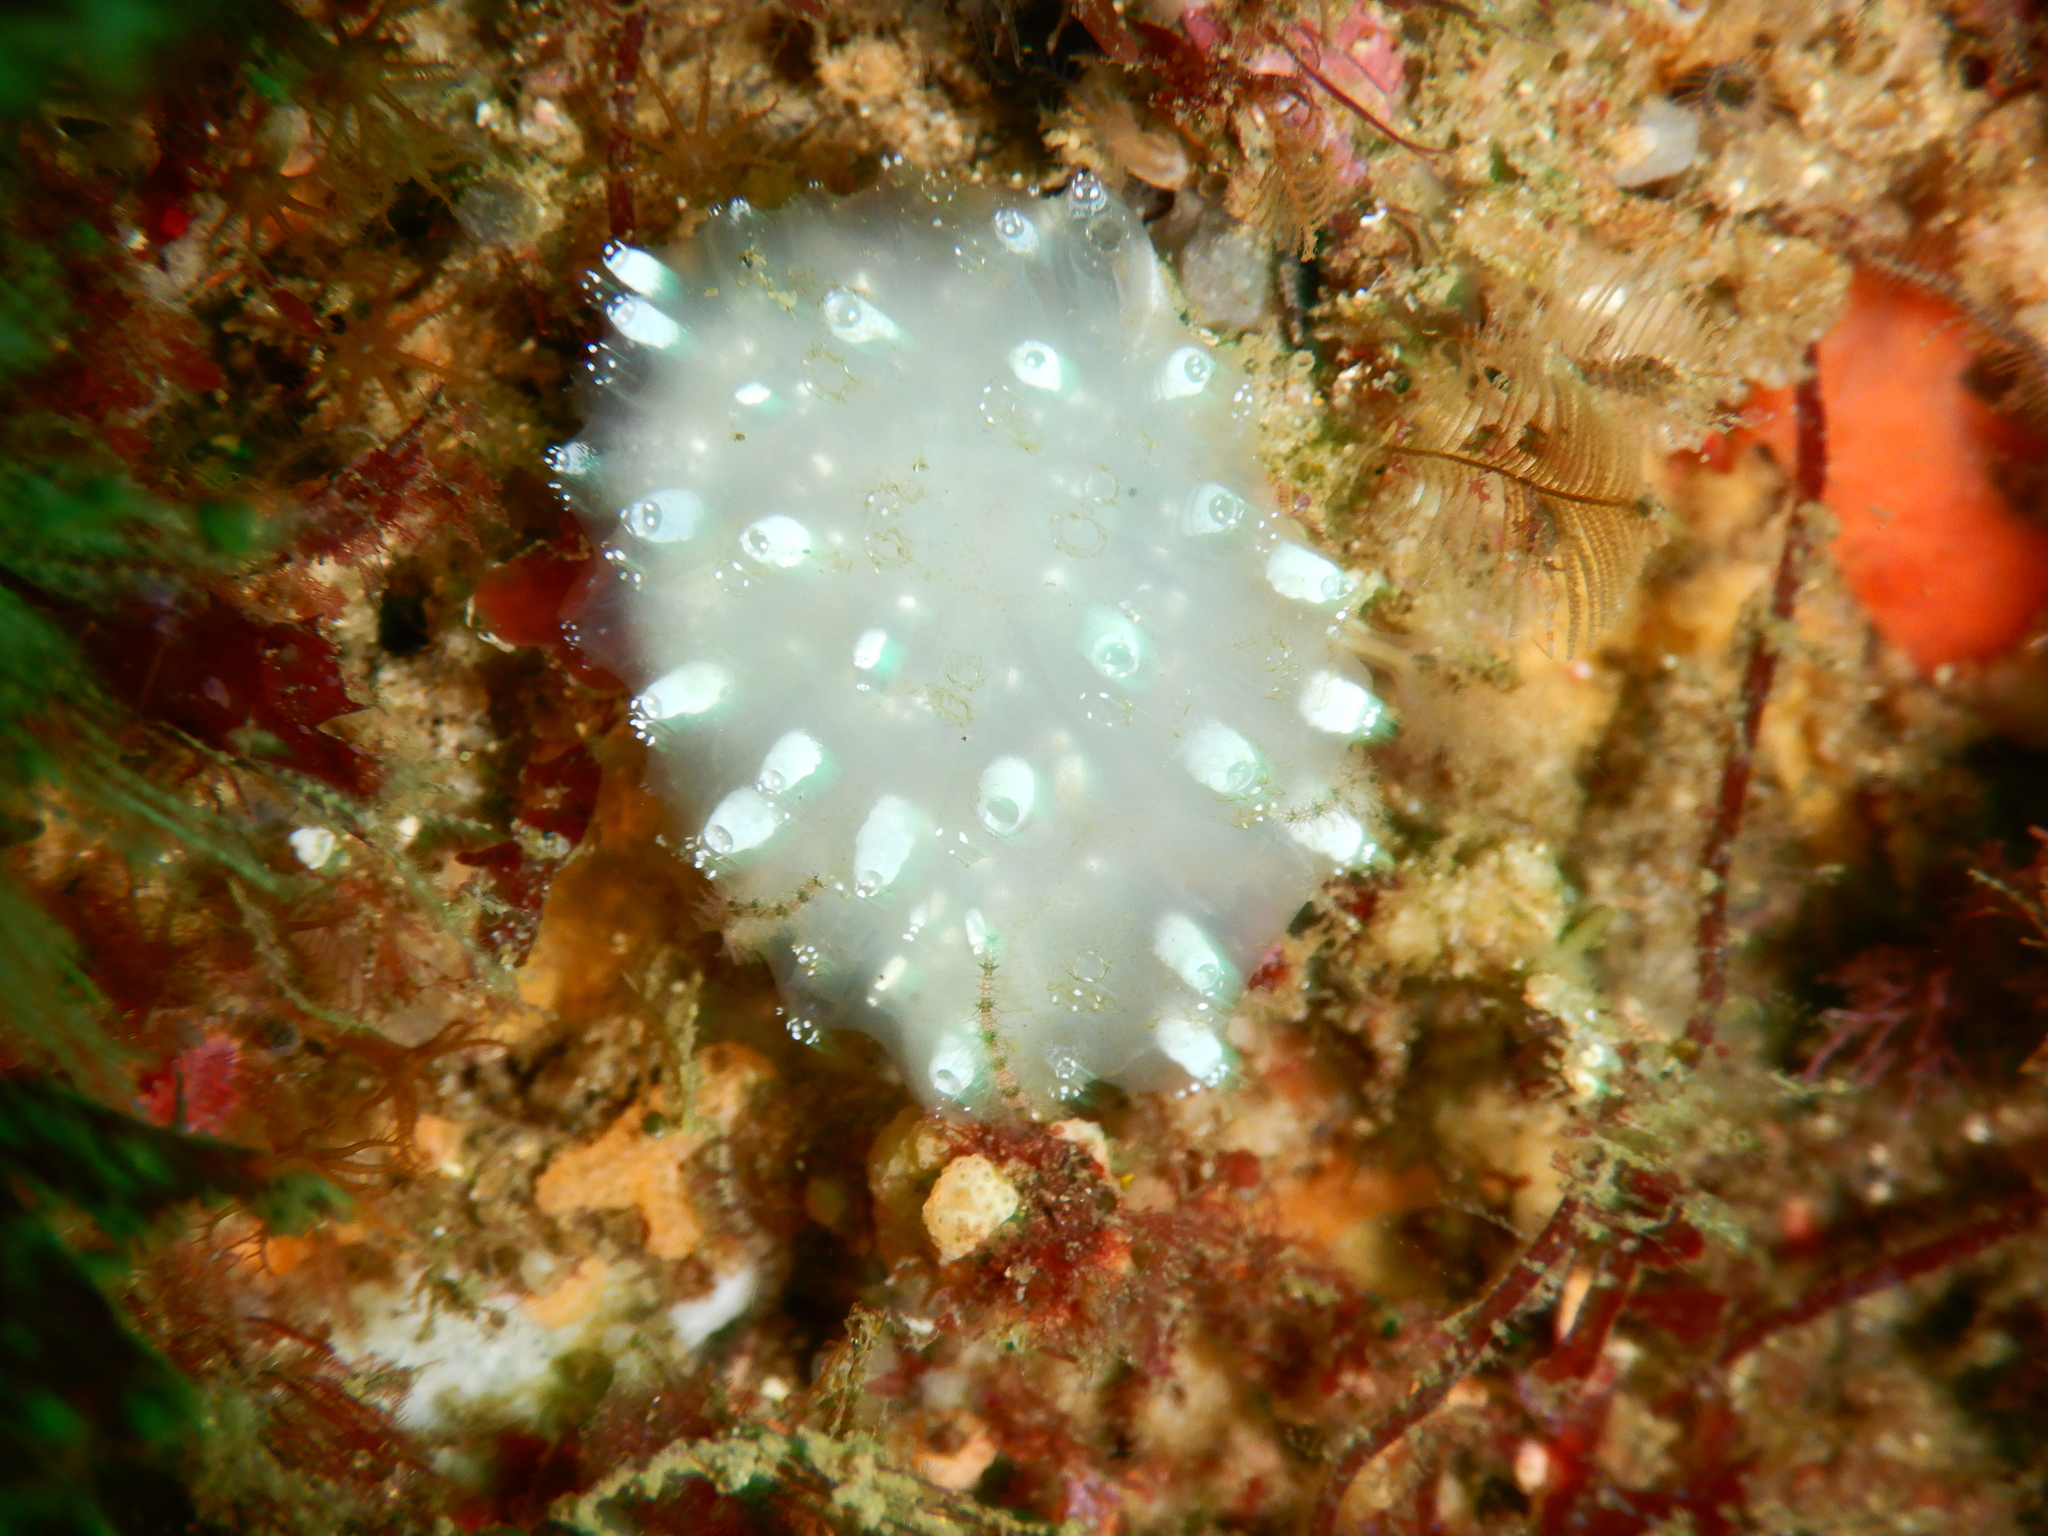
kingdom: Animalia
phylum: Chordata
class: Ascidiacea
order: Aplousobranchia
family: Polycitoridae
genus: Polycitor
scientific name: Polycitor giganteus
